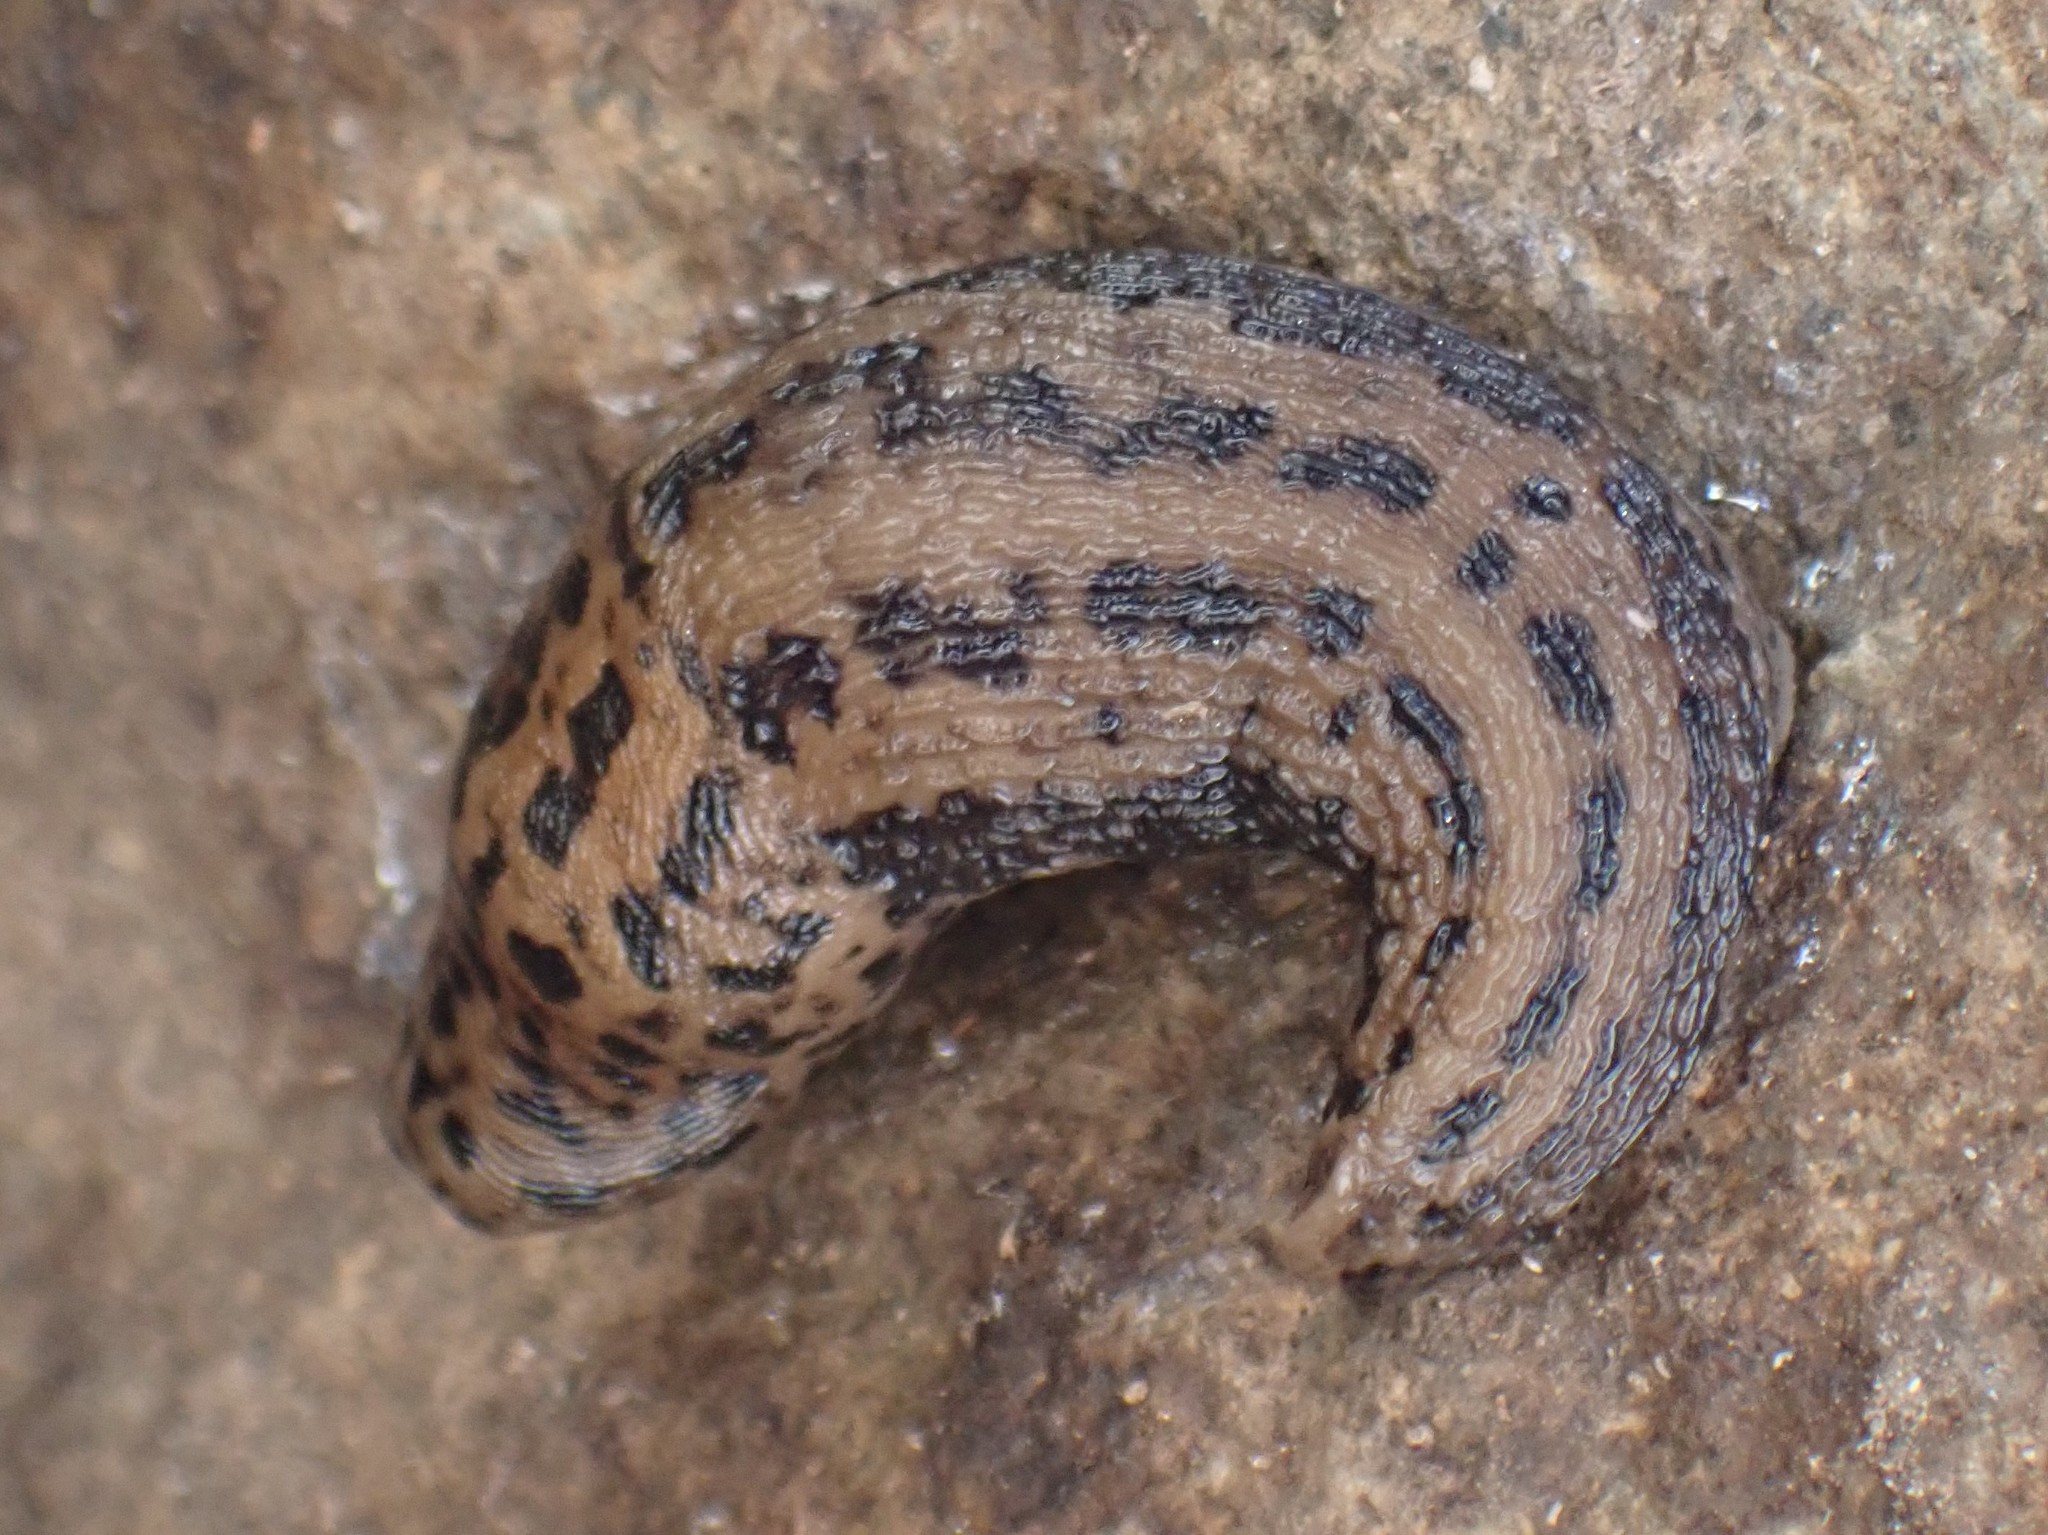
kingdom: Animalia
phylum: Mollusca
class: Gastropoda
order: Stylommatophora
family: Limacidae
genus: Limax
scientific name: Limax maximus
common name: Great grey slug
